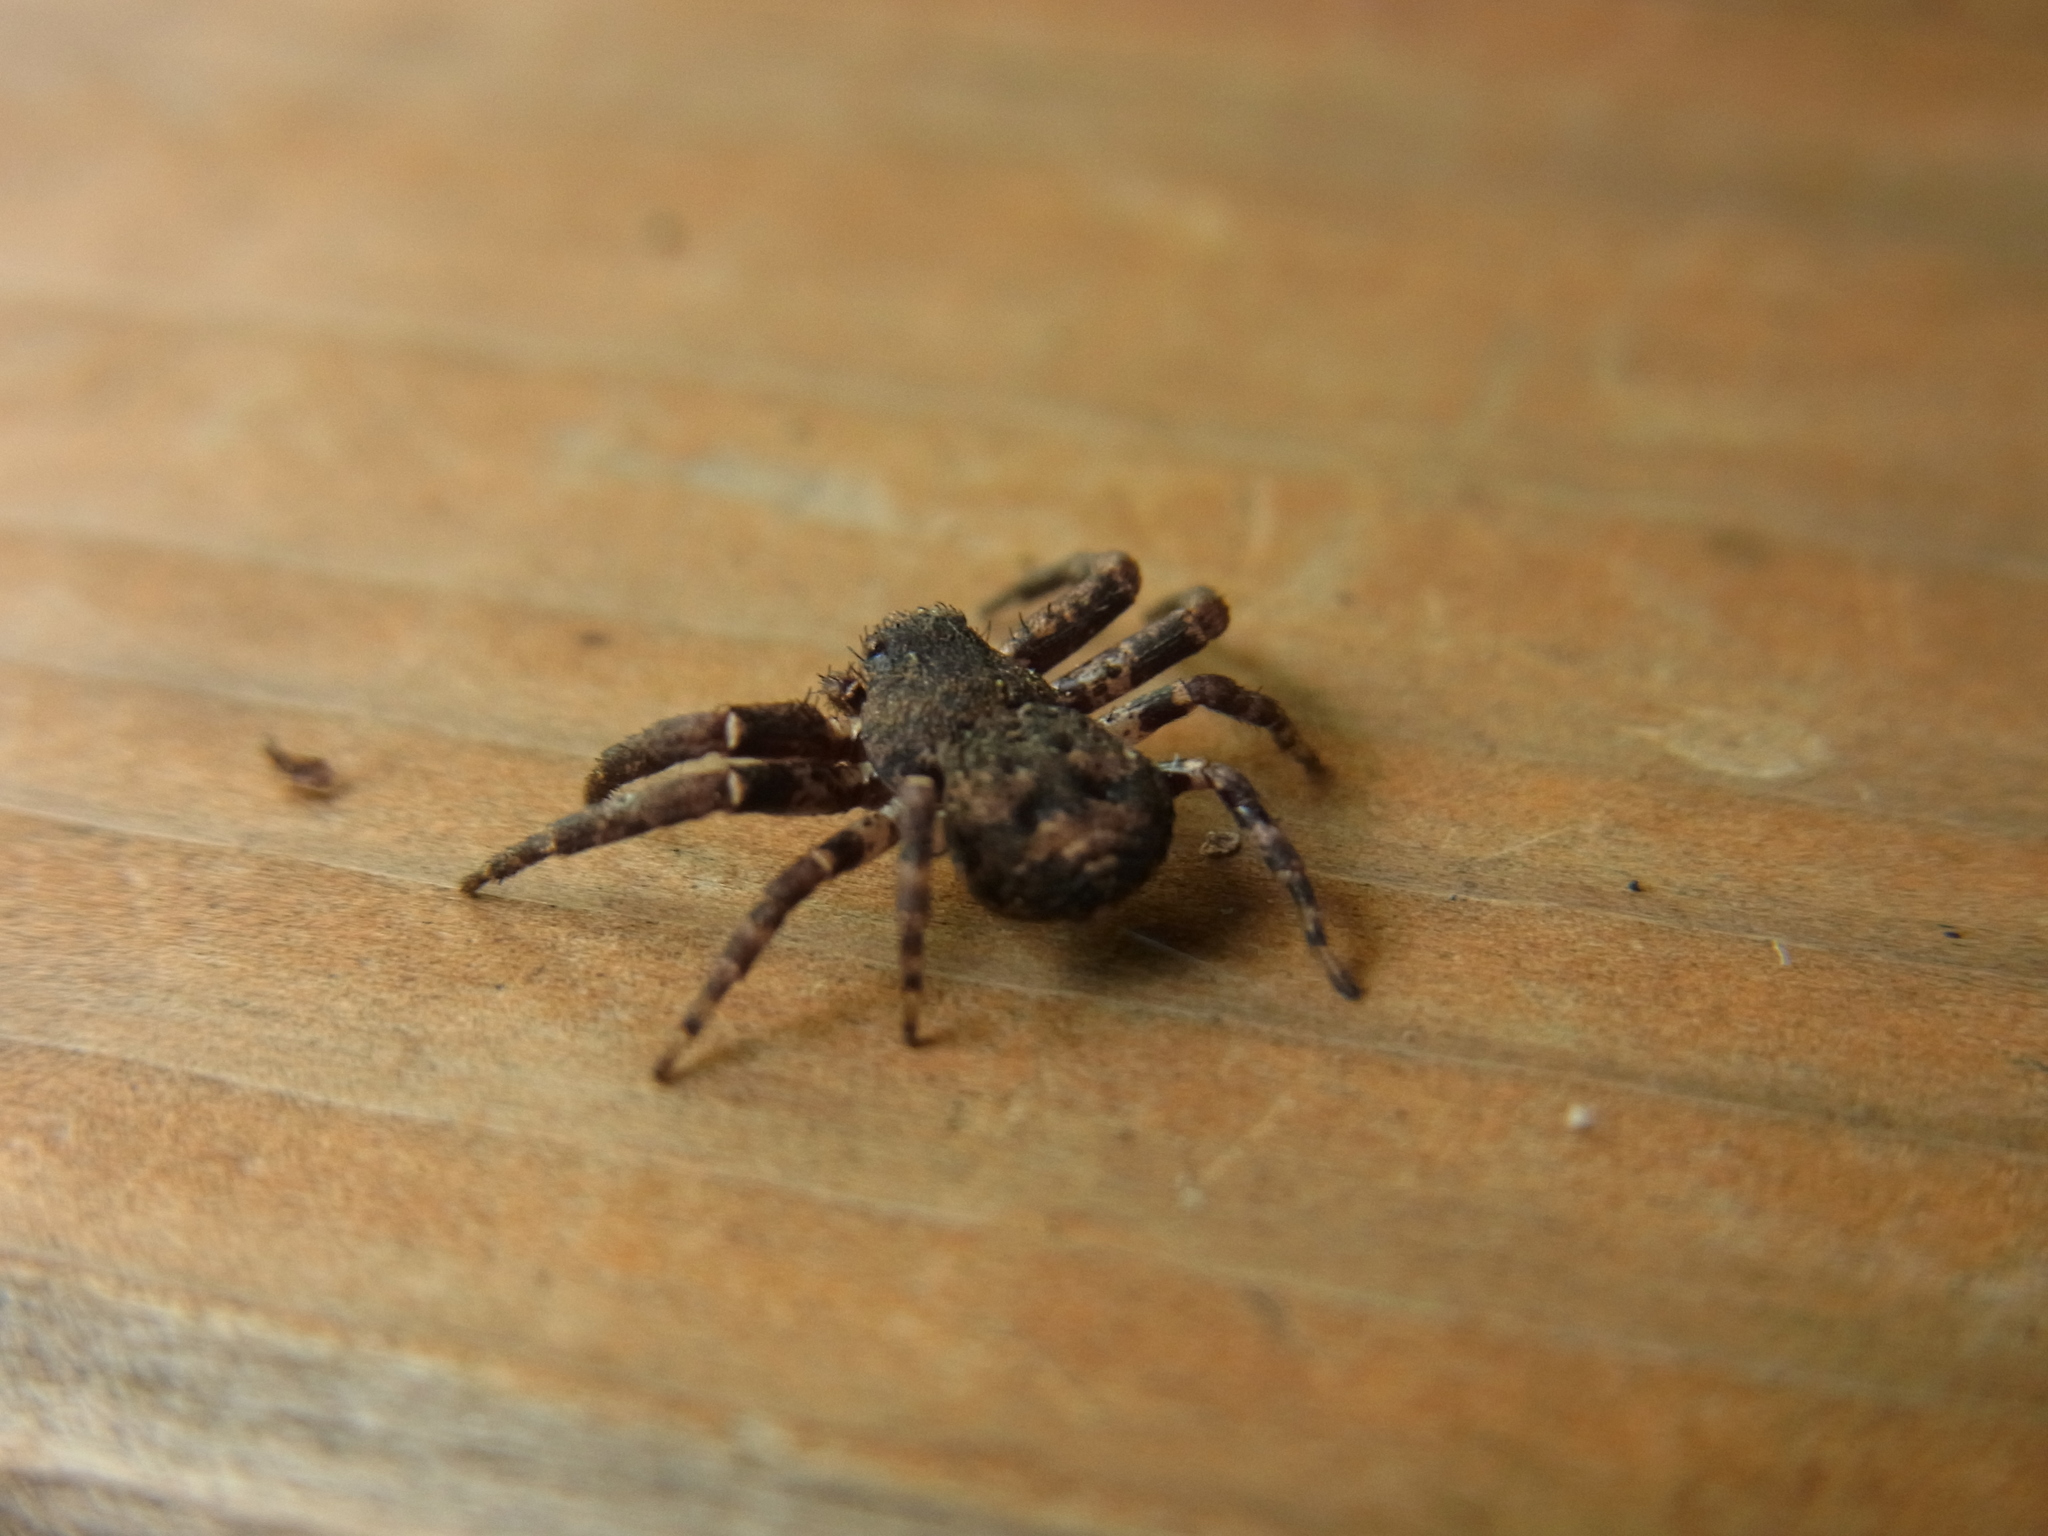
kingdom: Animalia
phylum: Arthropoda
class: Arachnida
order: Araneae
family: Thomisidae
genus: Bassaniana
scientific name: Bassaniana decorata
